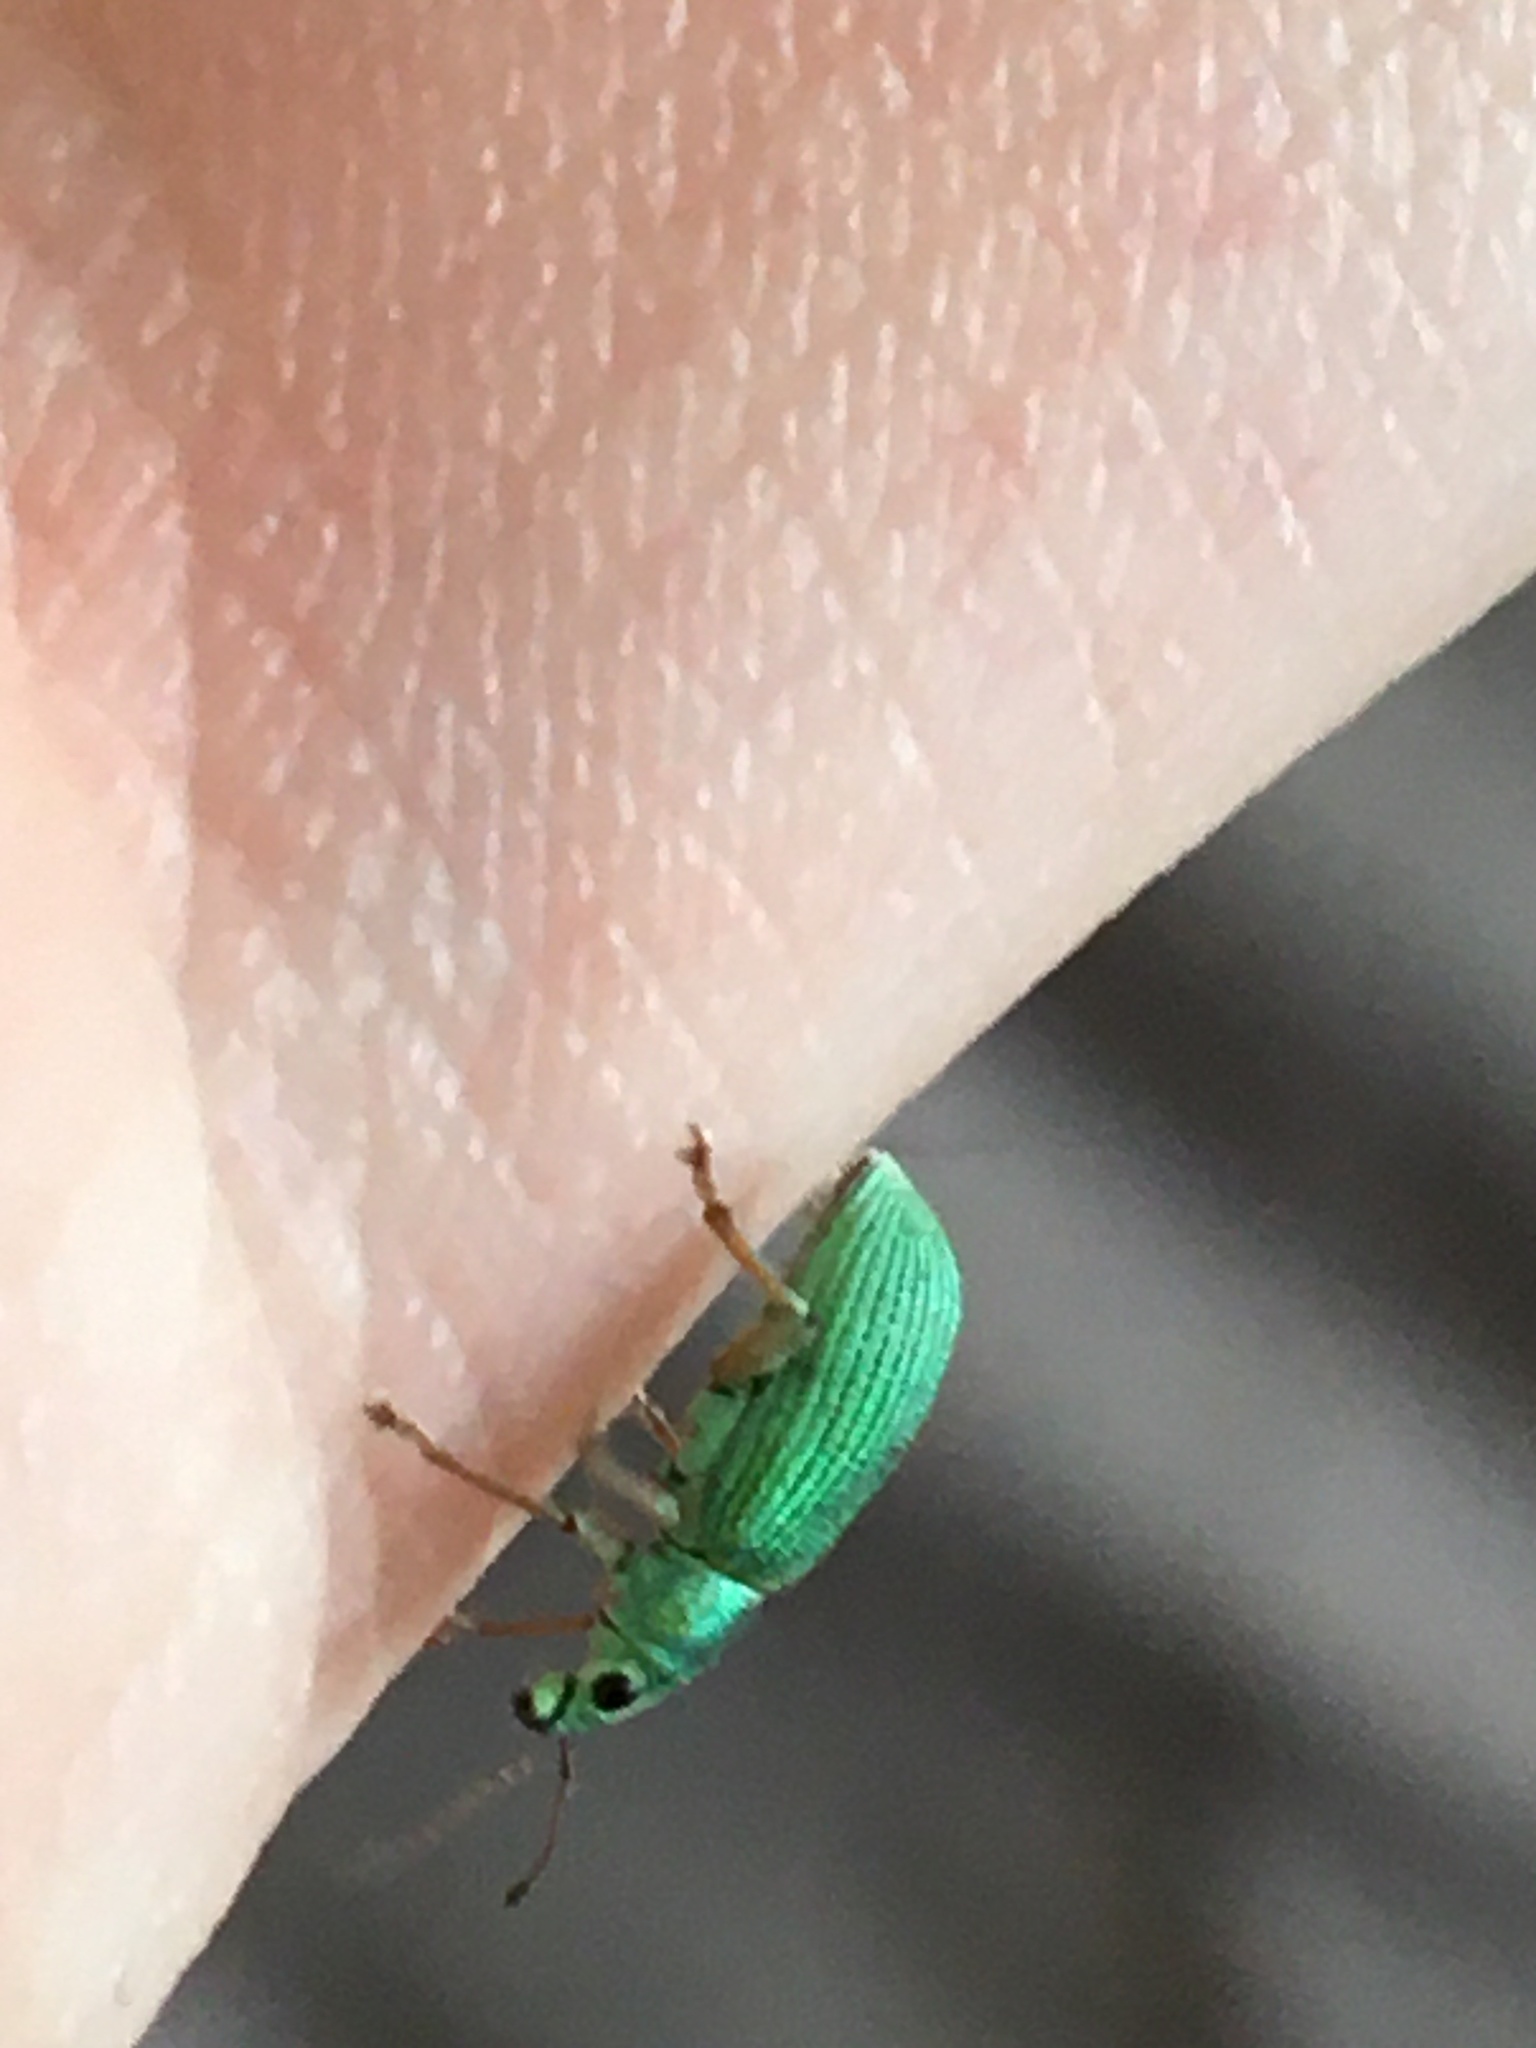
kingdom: Animalia
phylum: Arthropoda
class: Insecta
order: Coleoptera
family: Curculionidae
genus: Polydrusus
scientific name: Polydrusus formosus
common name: Weevil
